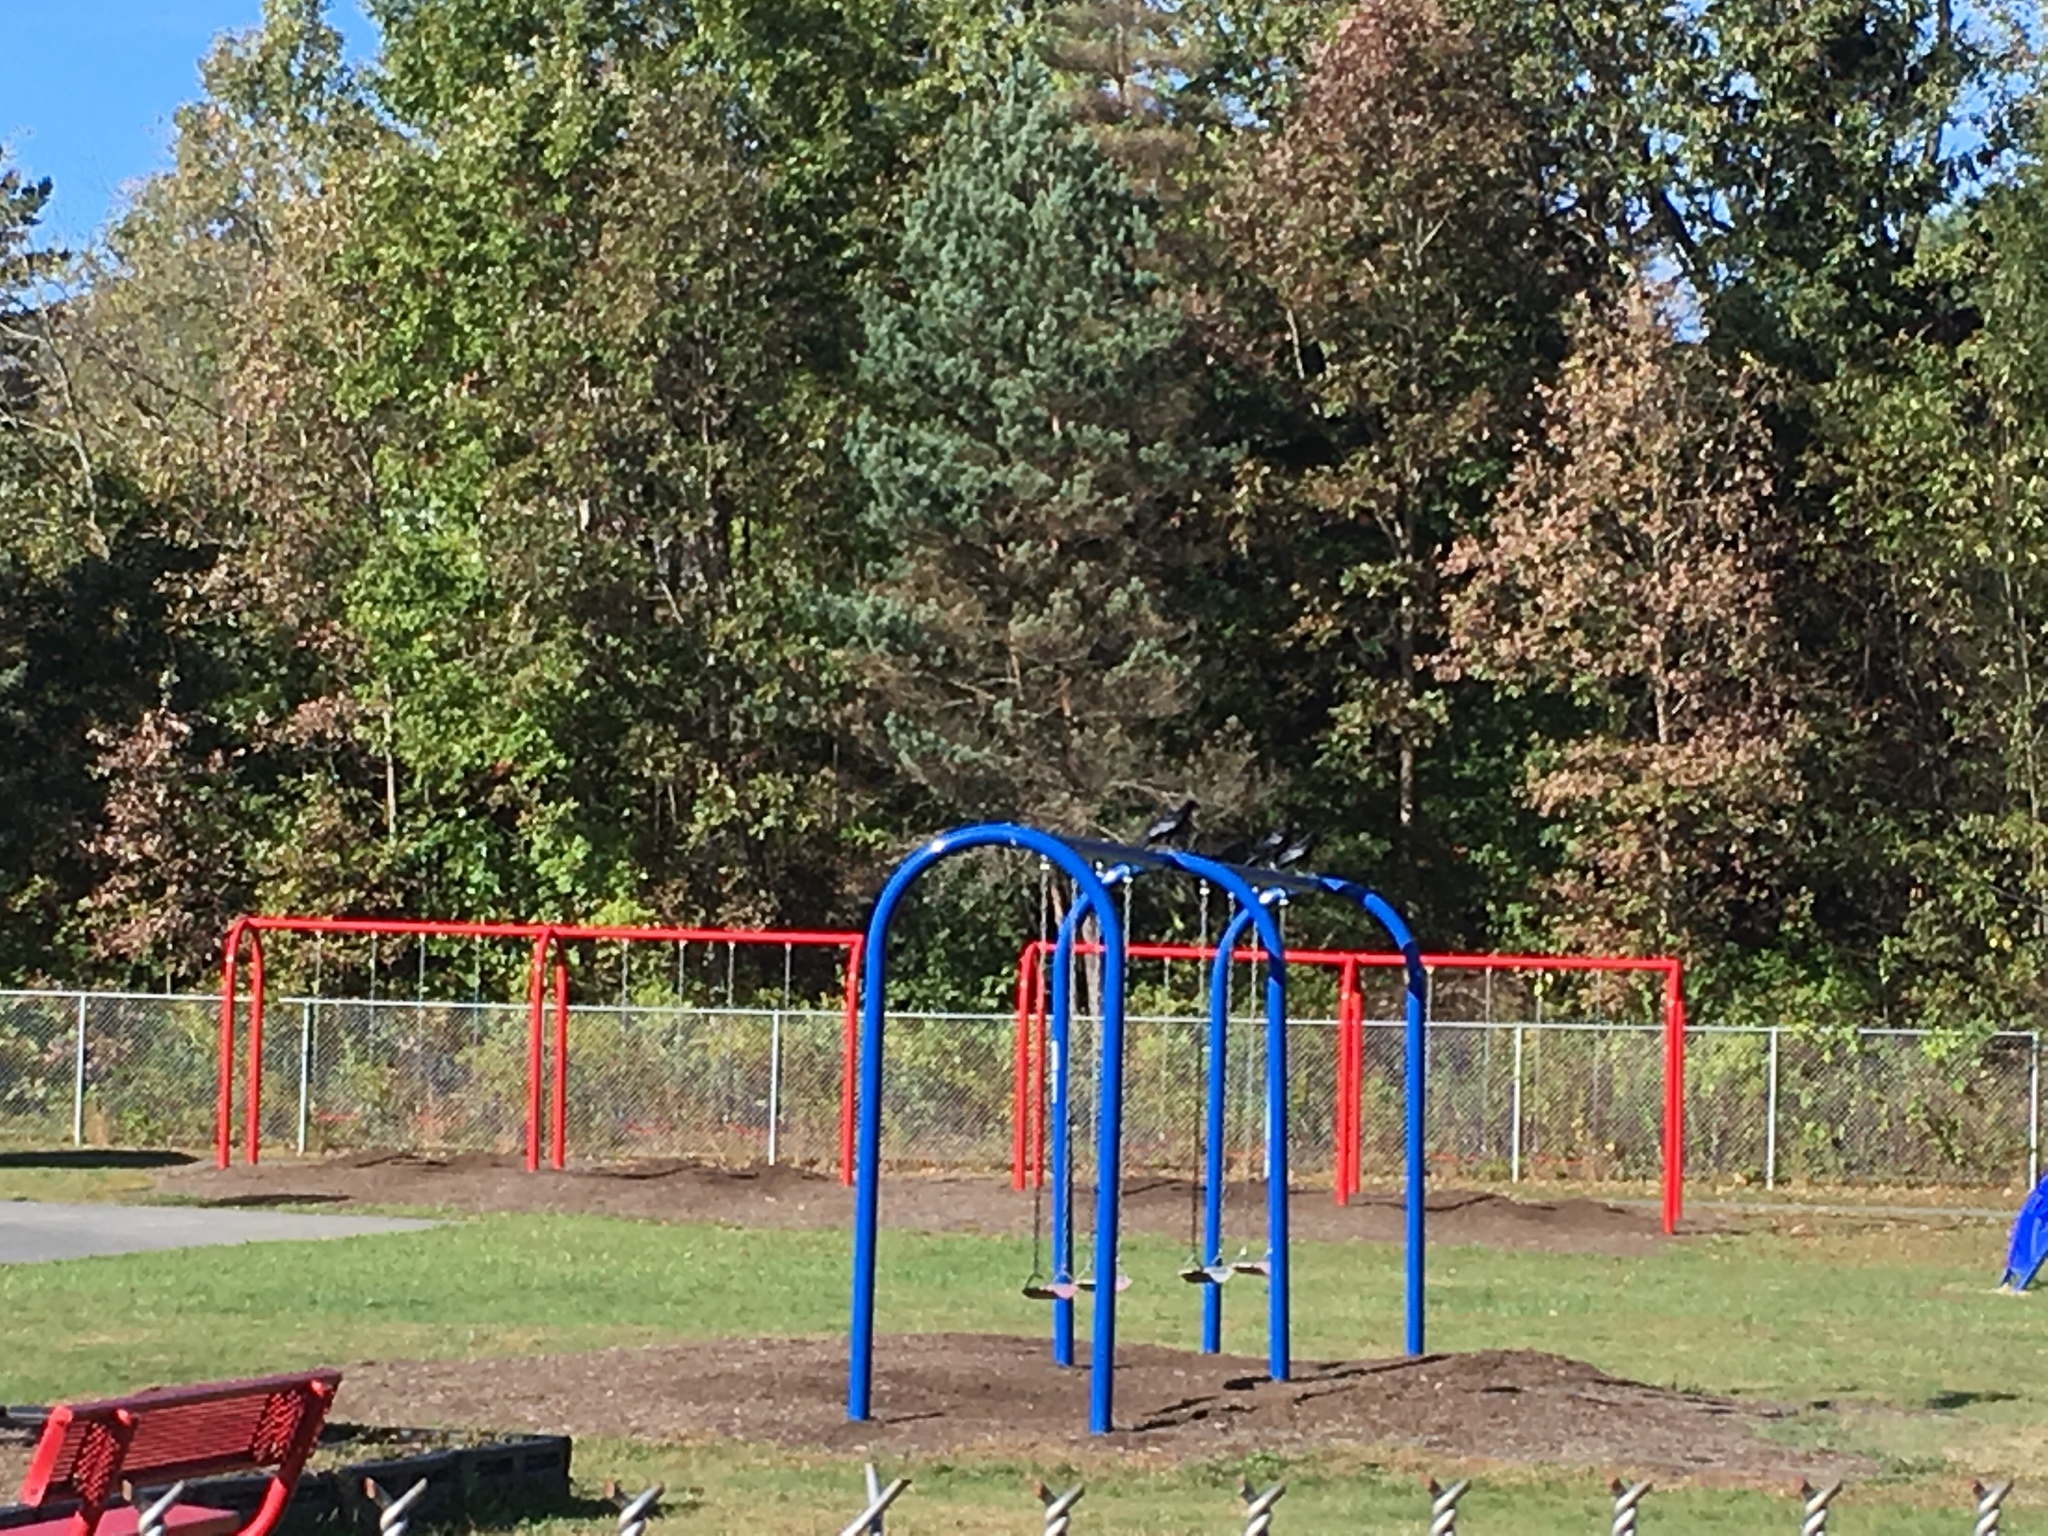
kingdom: Animalia
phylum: Chordata
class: Aves
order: Passeriformes
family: Corvidae
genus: Corvus
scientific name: Corvus brachyrhynchos
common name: American crow
